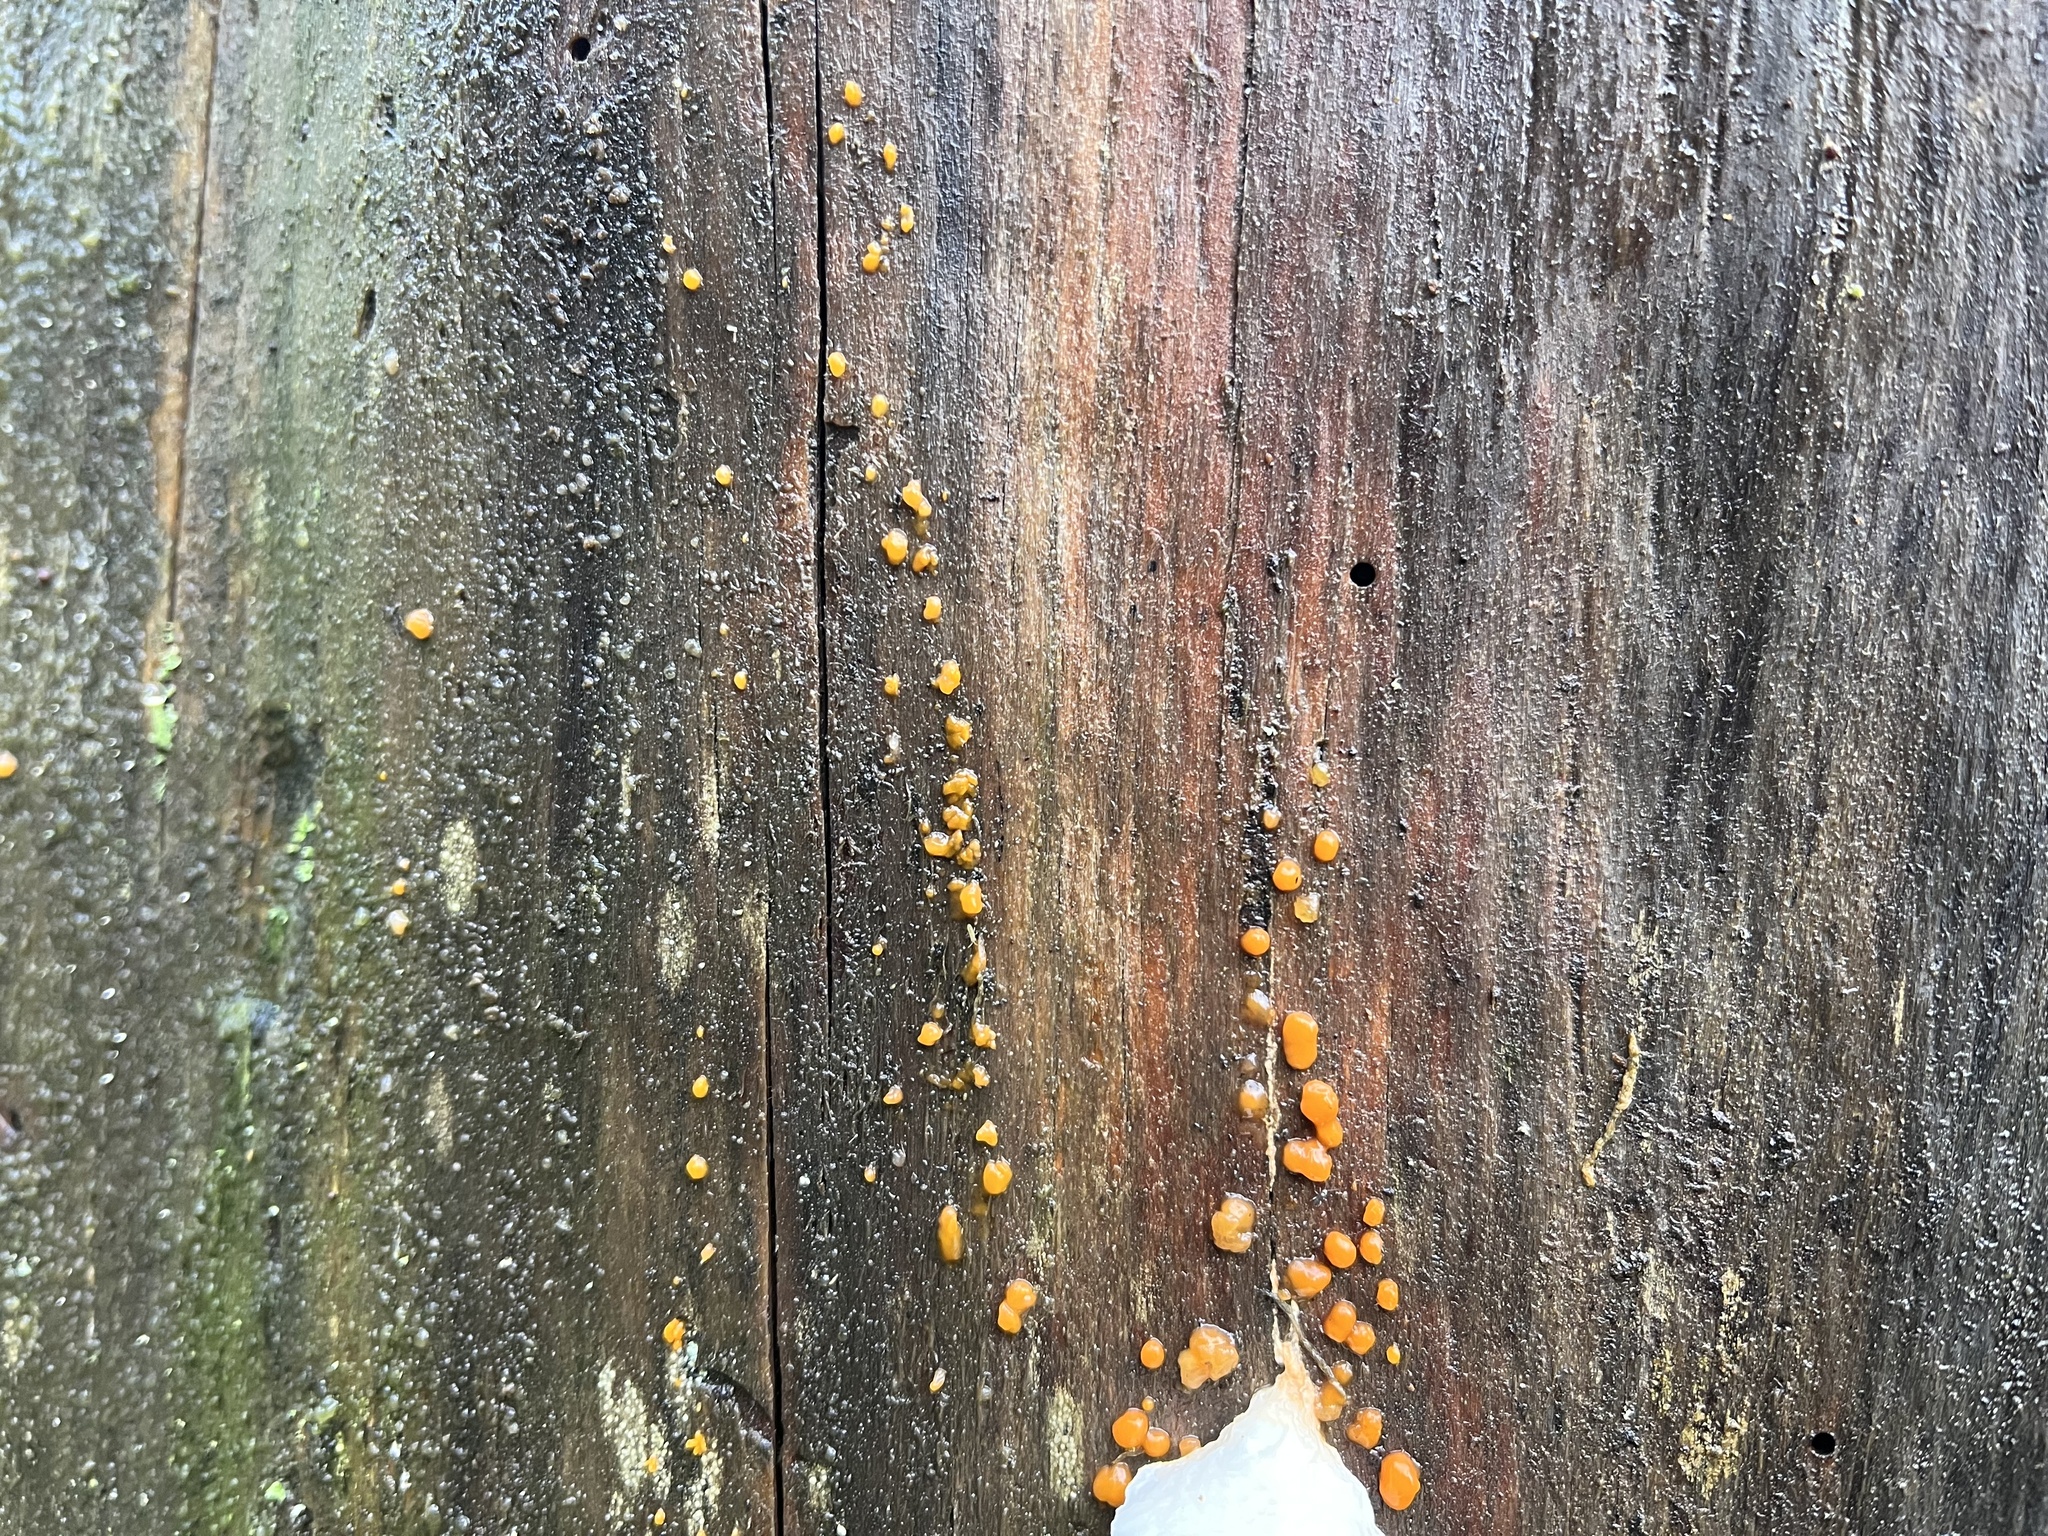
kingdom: Fungi
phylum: Basidiomycota
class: Dacrymycetes
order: Dacrymycetales
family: Dacrymycetaceae
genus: Dacrymyces
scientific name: Dacrymyces stillatus
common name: Common jelly spot
